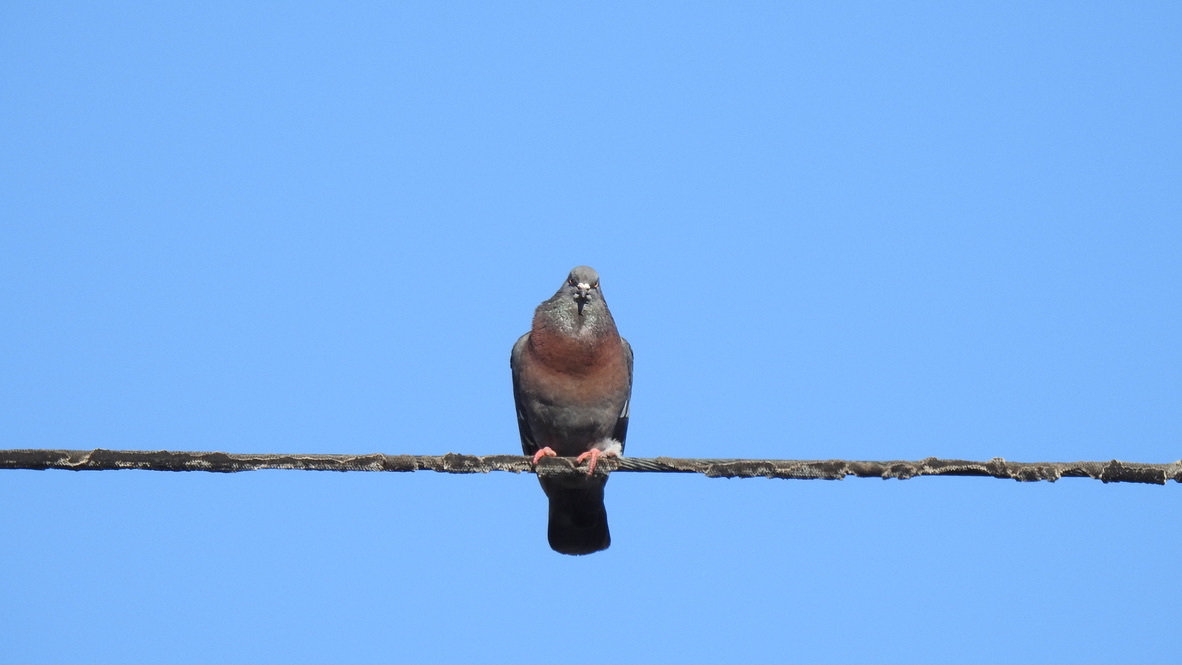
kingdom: Animalia
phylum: Chordata
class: Aves
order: Columbiformes
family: Columbidae
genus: Columba
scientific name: Columba livia
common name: Rock pigeon
